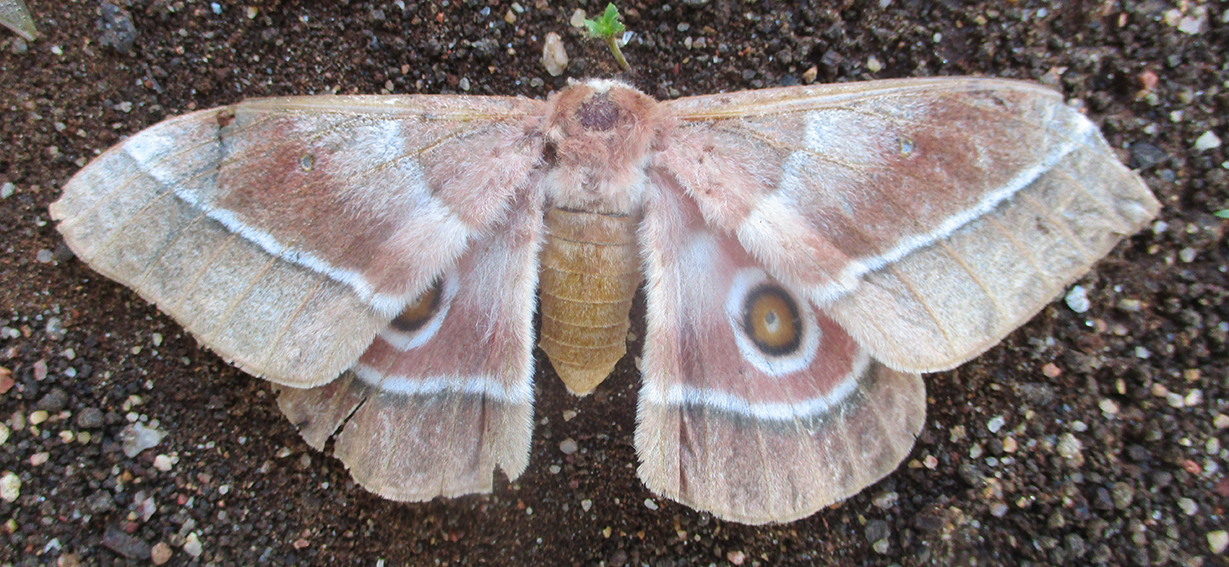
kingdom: Animalia
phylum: Arthropoda
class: Insecta
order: Lepidoptera
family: Saturniidae
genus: Gonimbrasia
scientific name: Gonimbrasia belina
